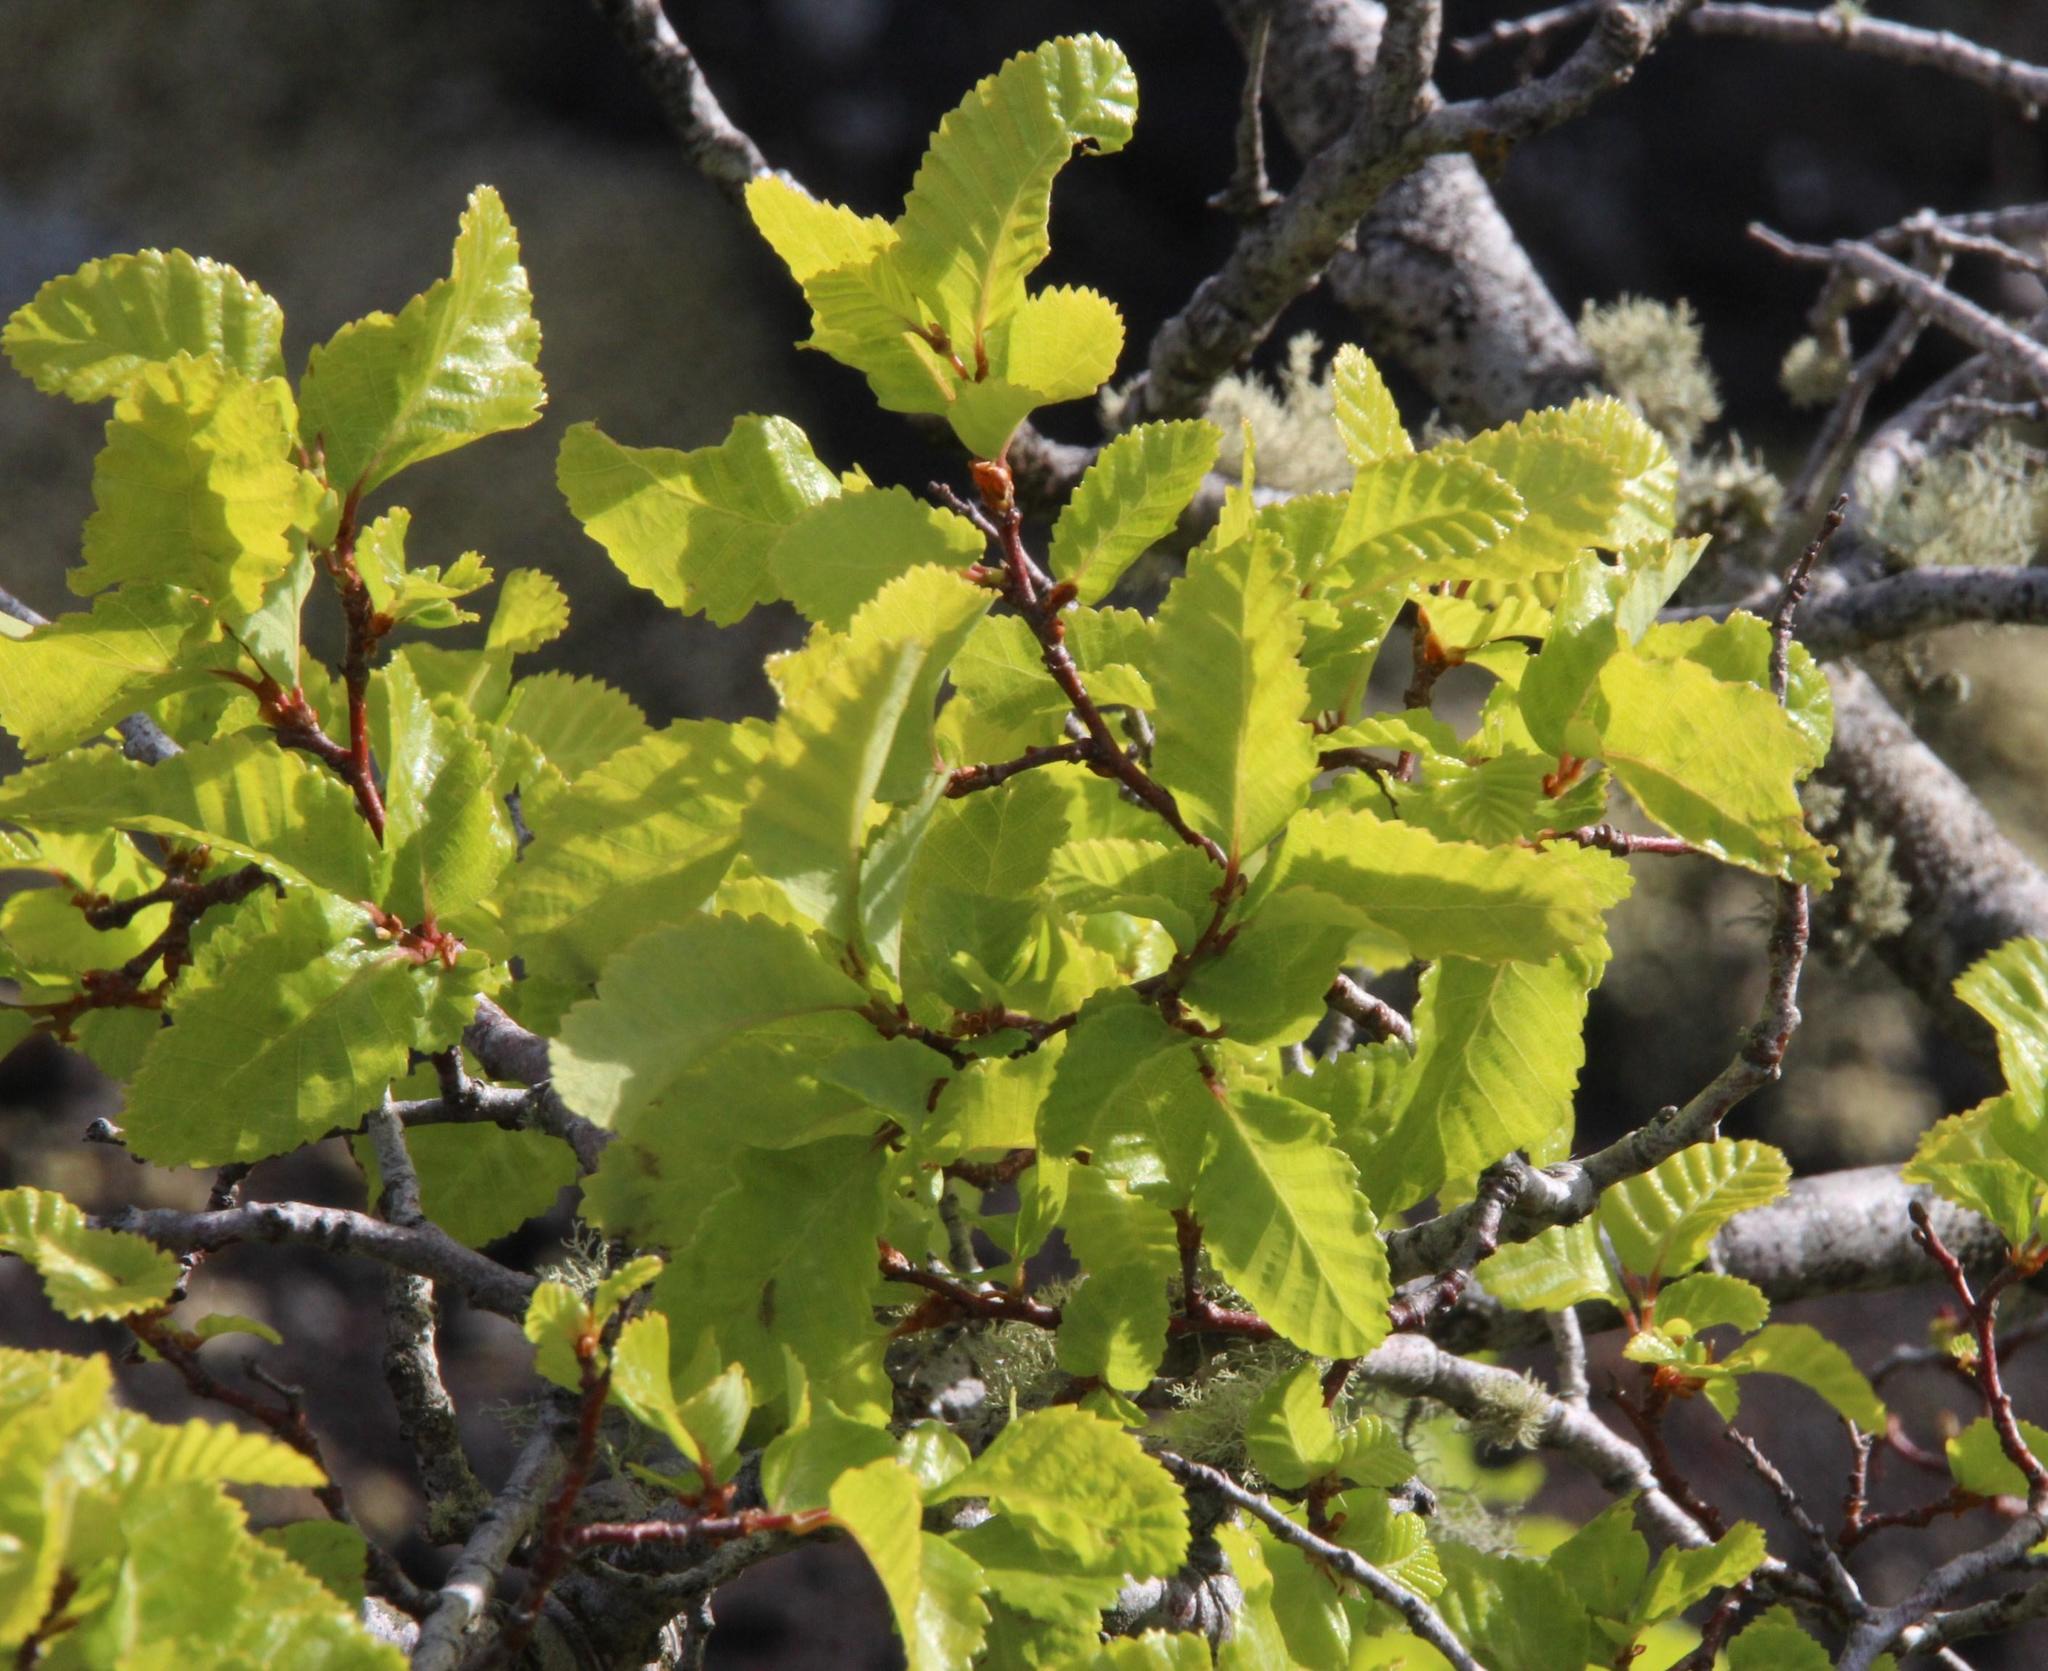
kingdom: Plantae
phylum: Tracheophyta
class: Magnoliopsida
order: Fagales
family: Nothofagaceae
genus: Nothofagus
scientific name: Nothofagus obliqua
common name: Roble beech
